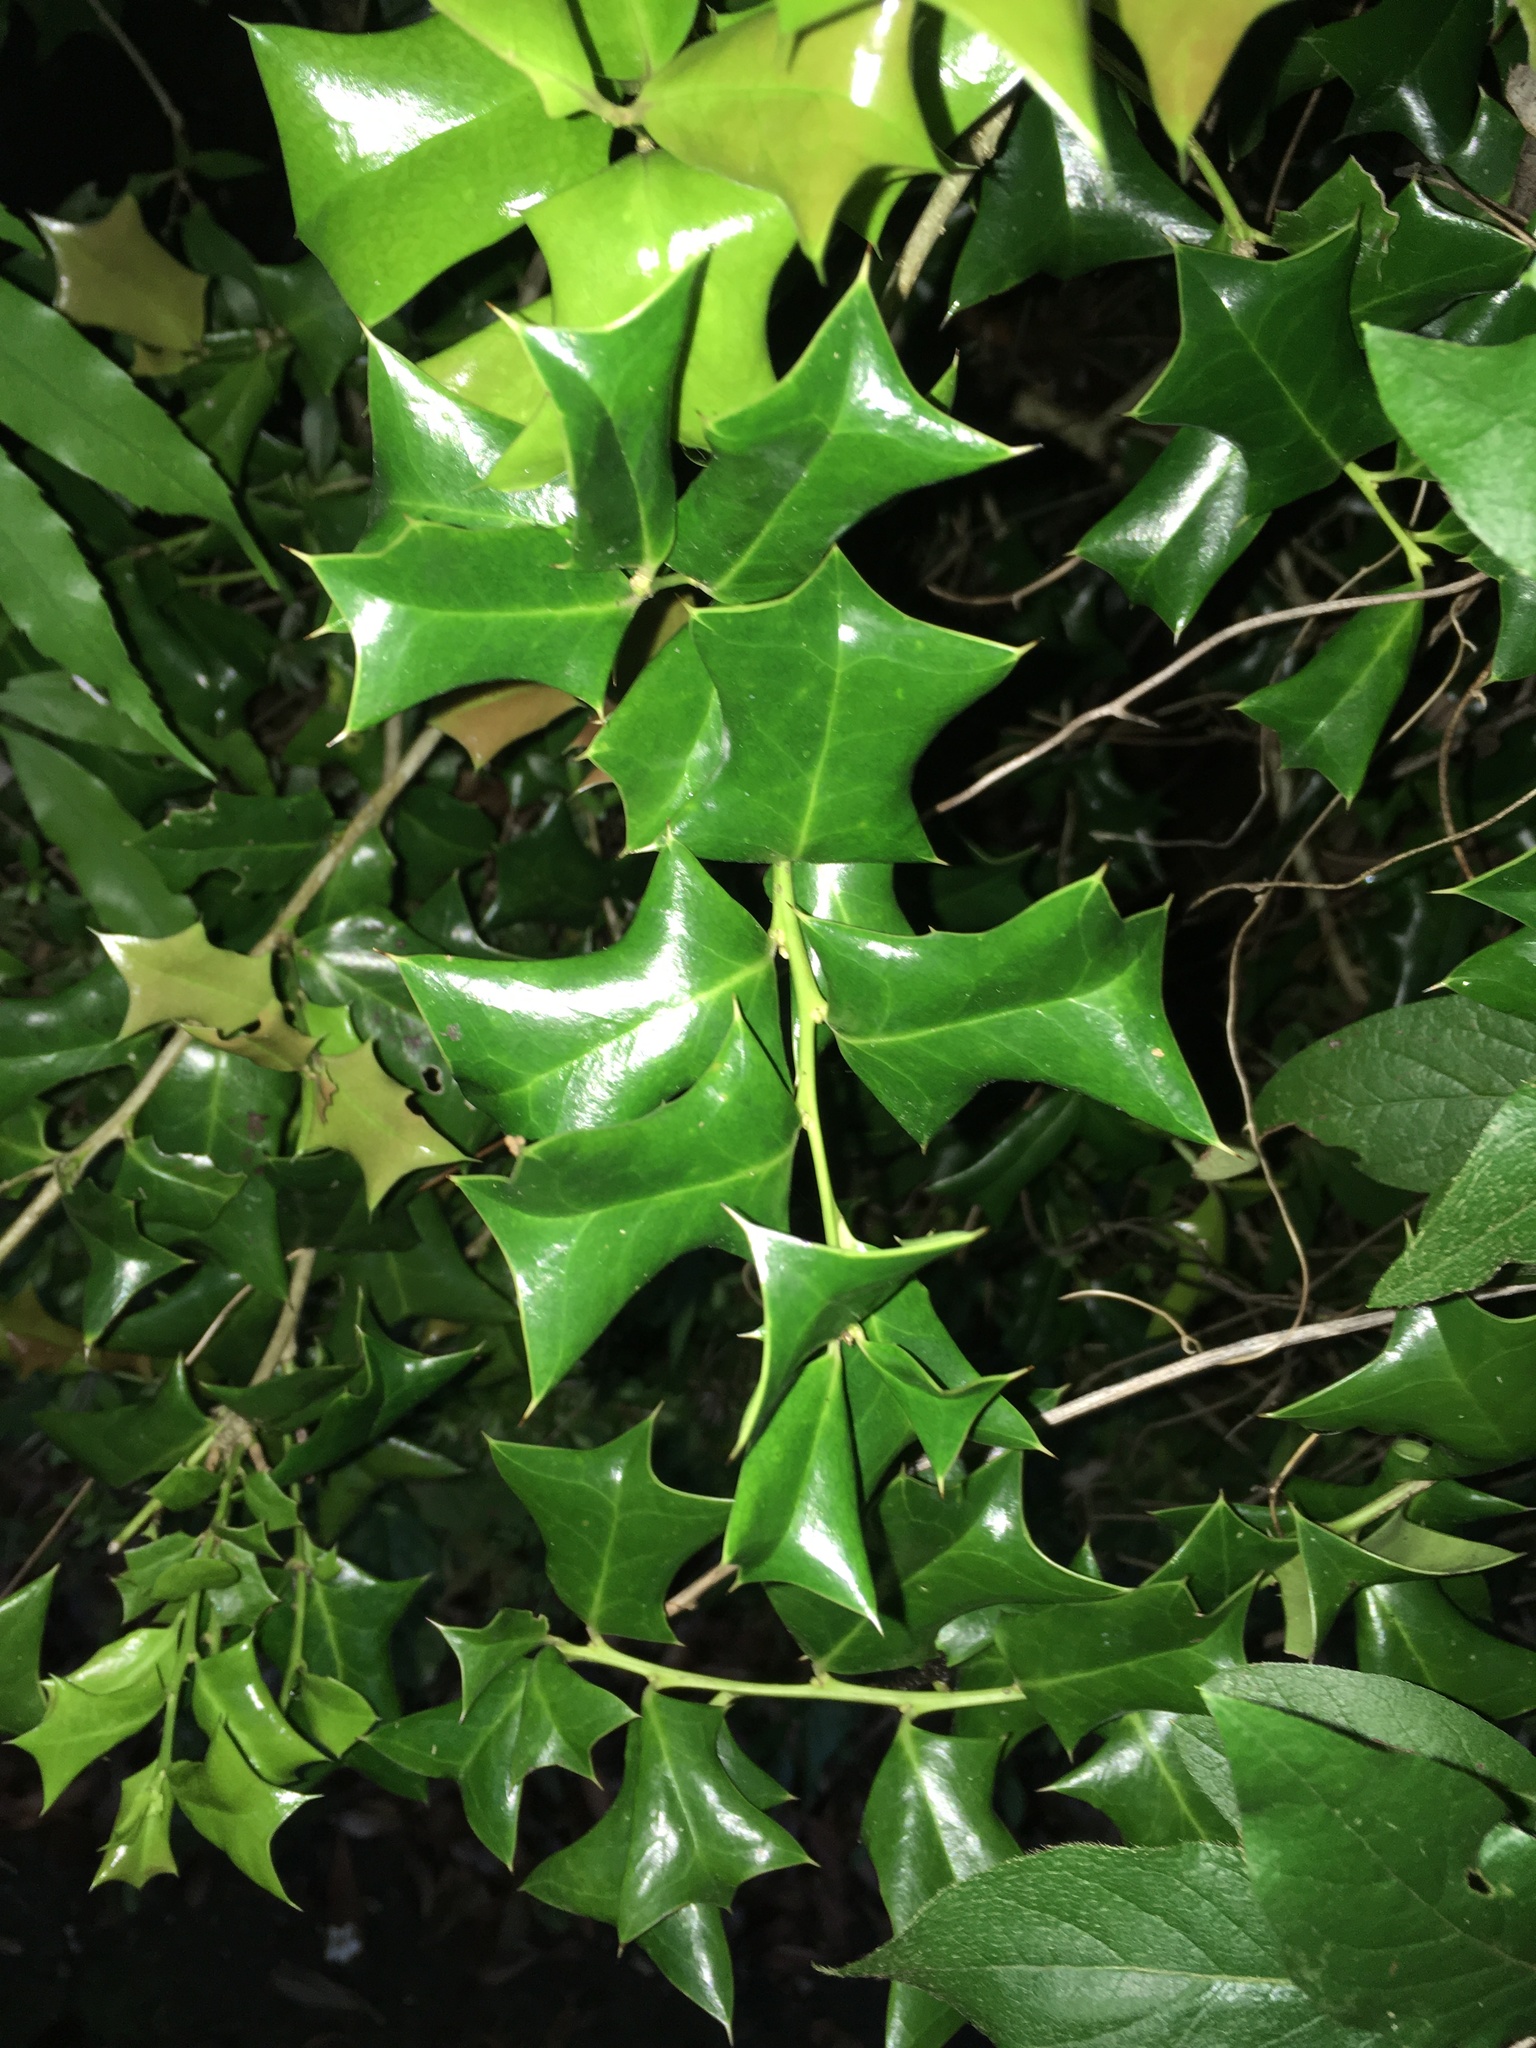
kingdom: Plantae
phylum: Tracheophyta
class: Magnoliopsida
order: Aquifoliales
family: Aquifoliaceae
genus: Ilex
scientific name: Ilex cornuta
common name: Chinese holly
